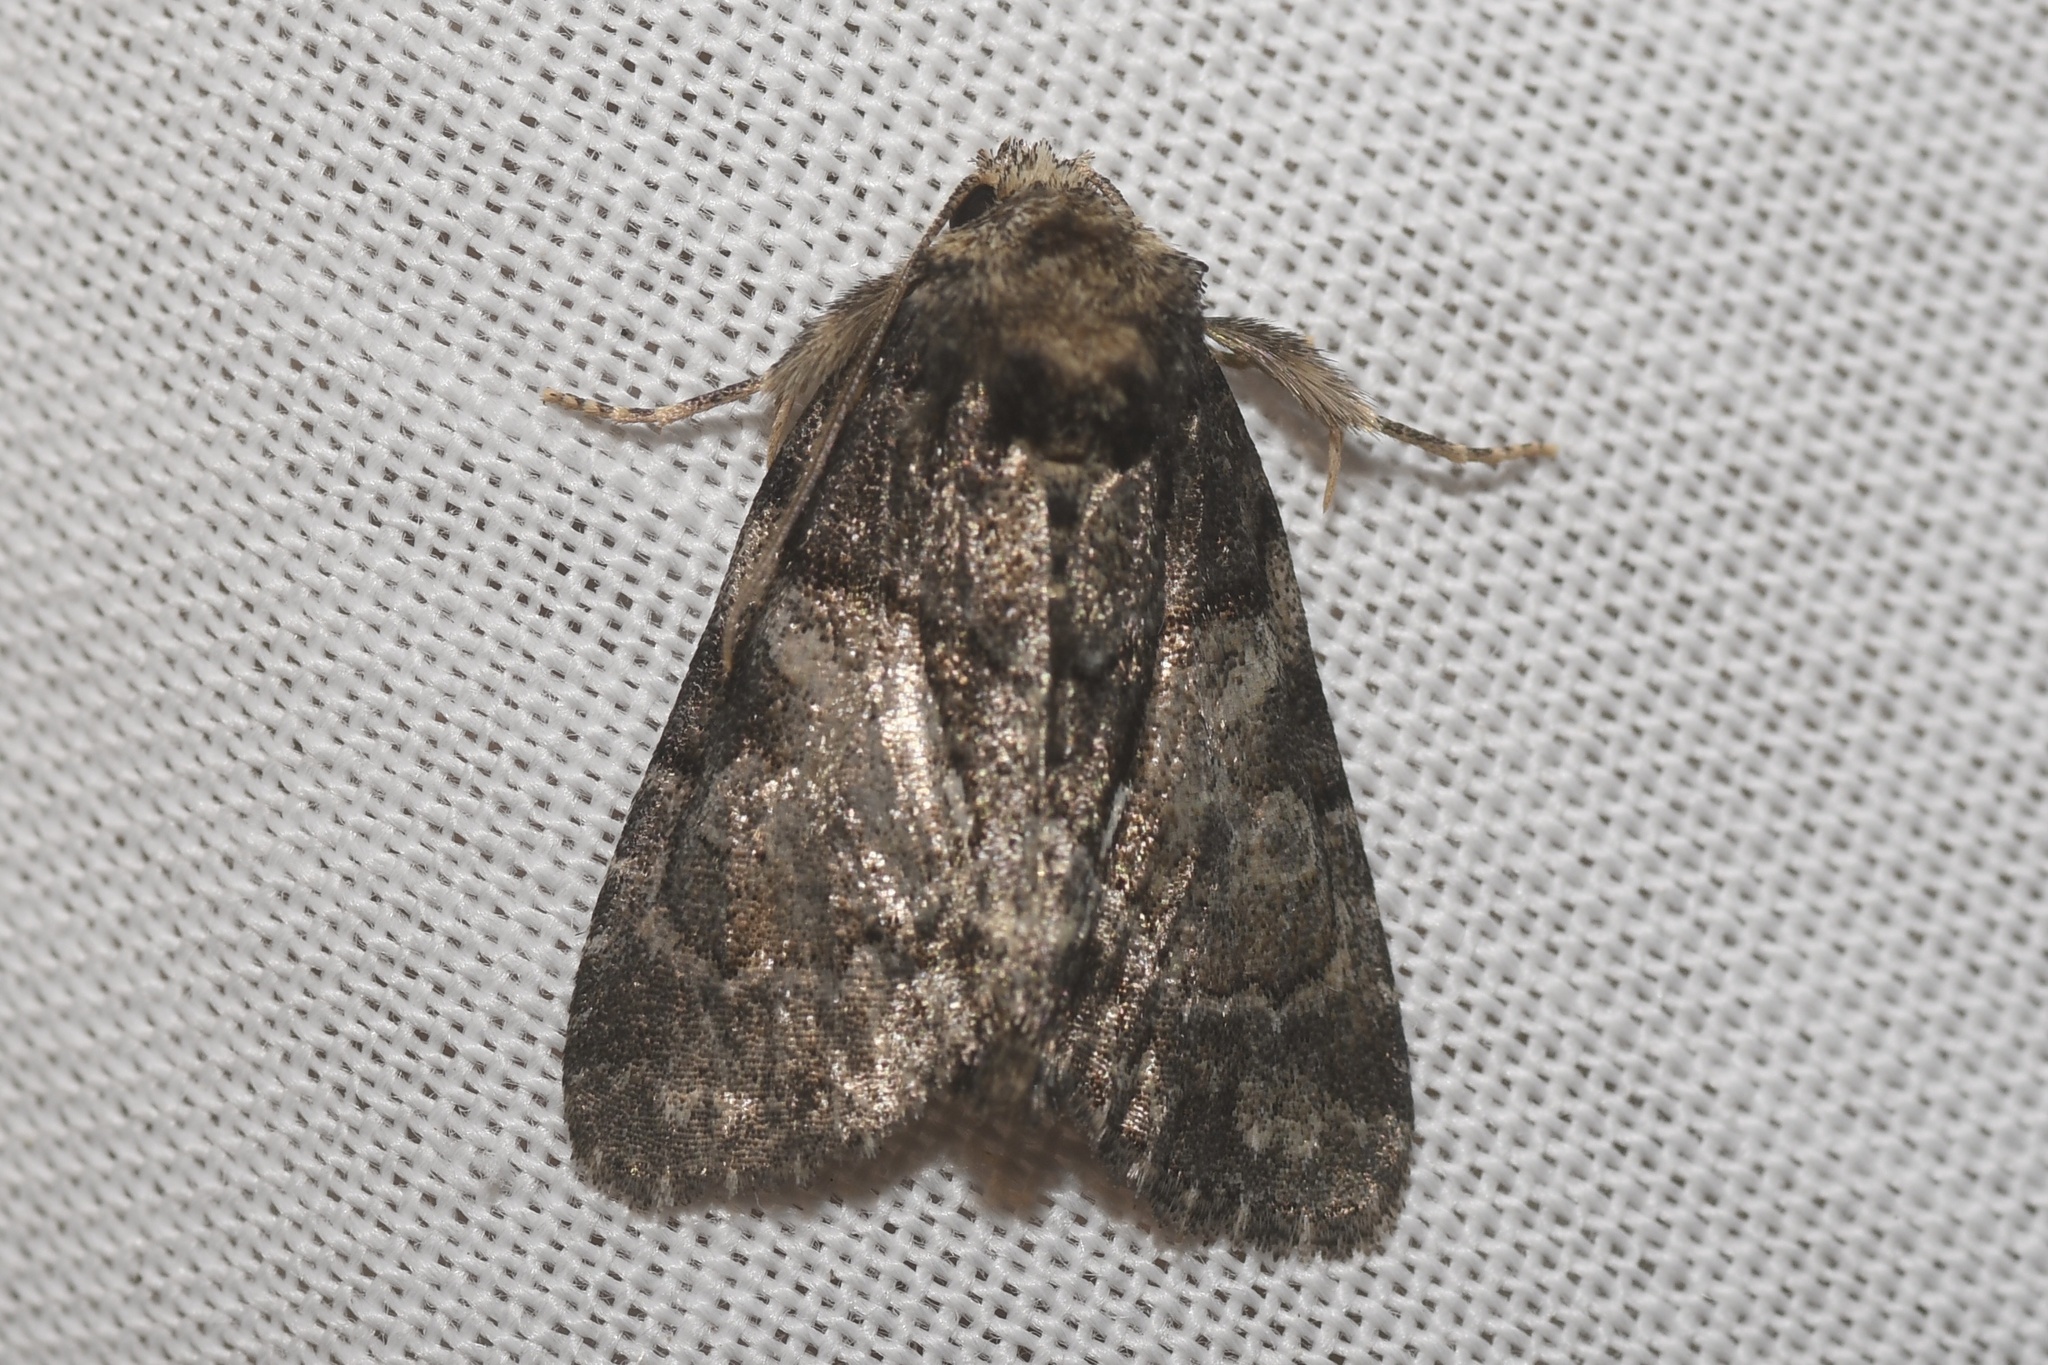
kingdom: Animalia
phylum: Arthropoda
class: Insecta
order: Lepidoptera
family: Noctuidae
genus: Chytonix
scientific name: Chytonix palliatricula
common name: Cloaked marvel
